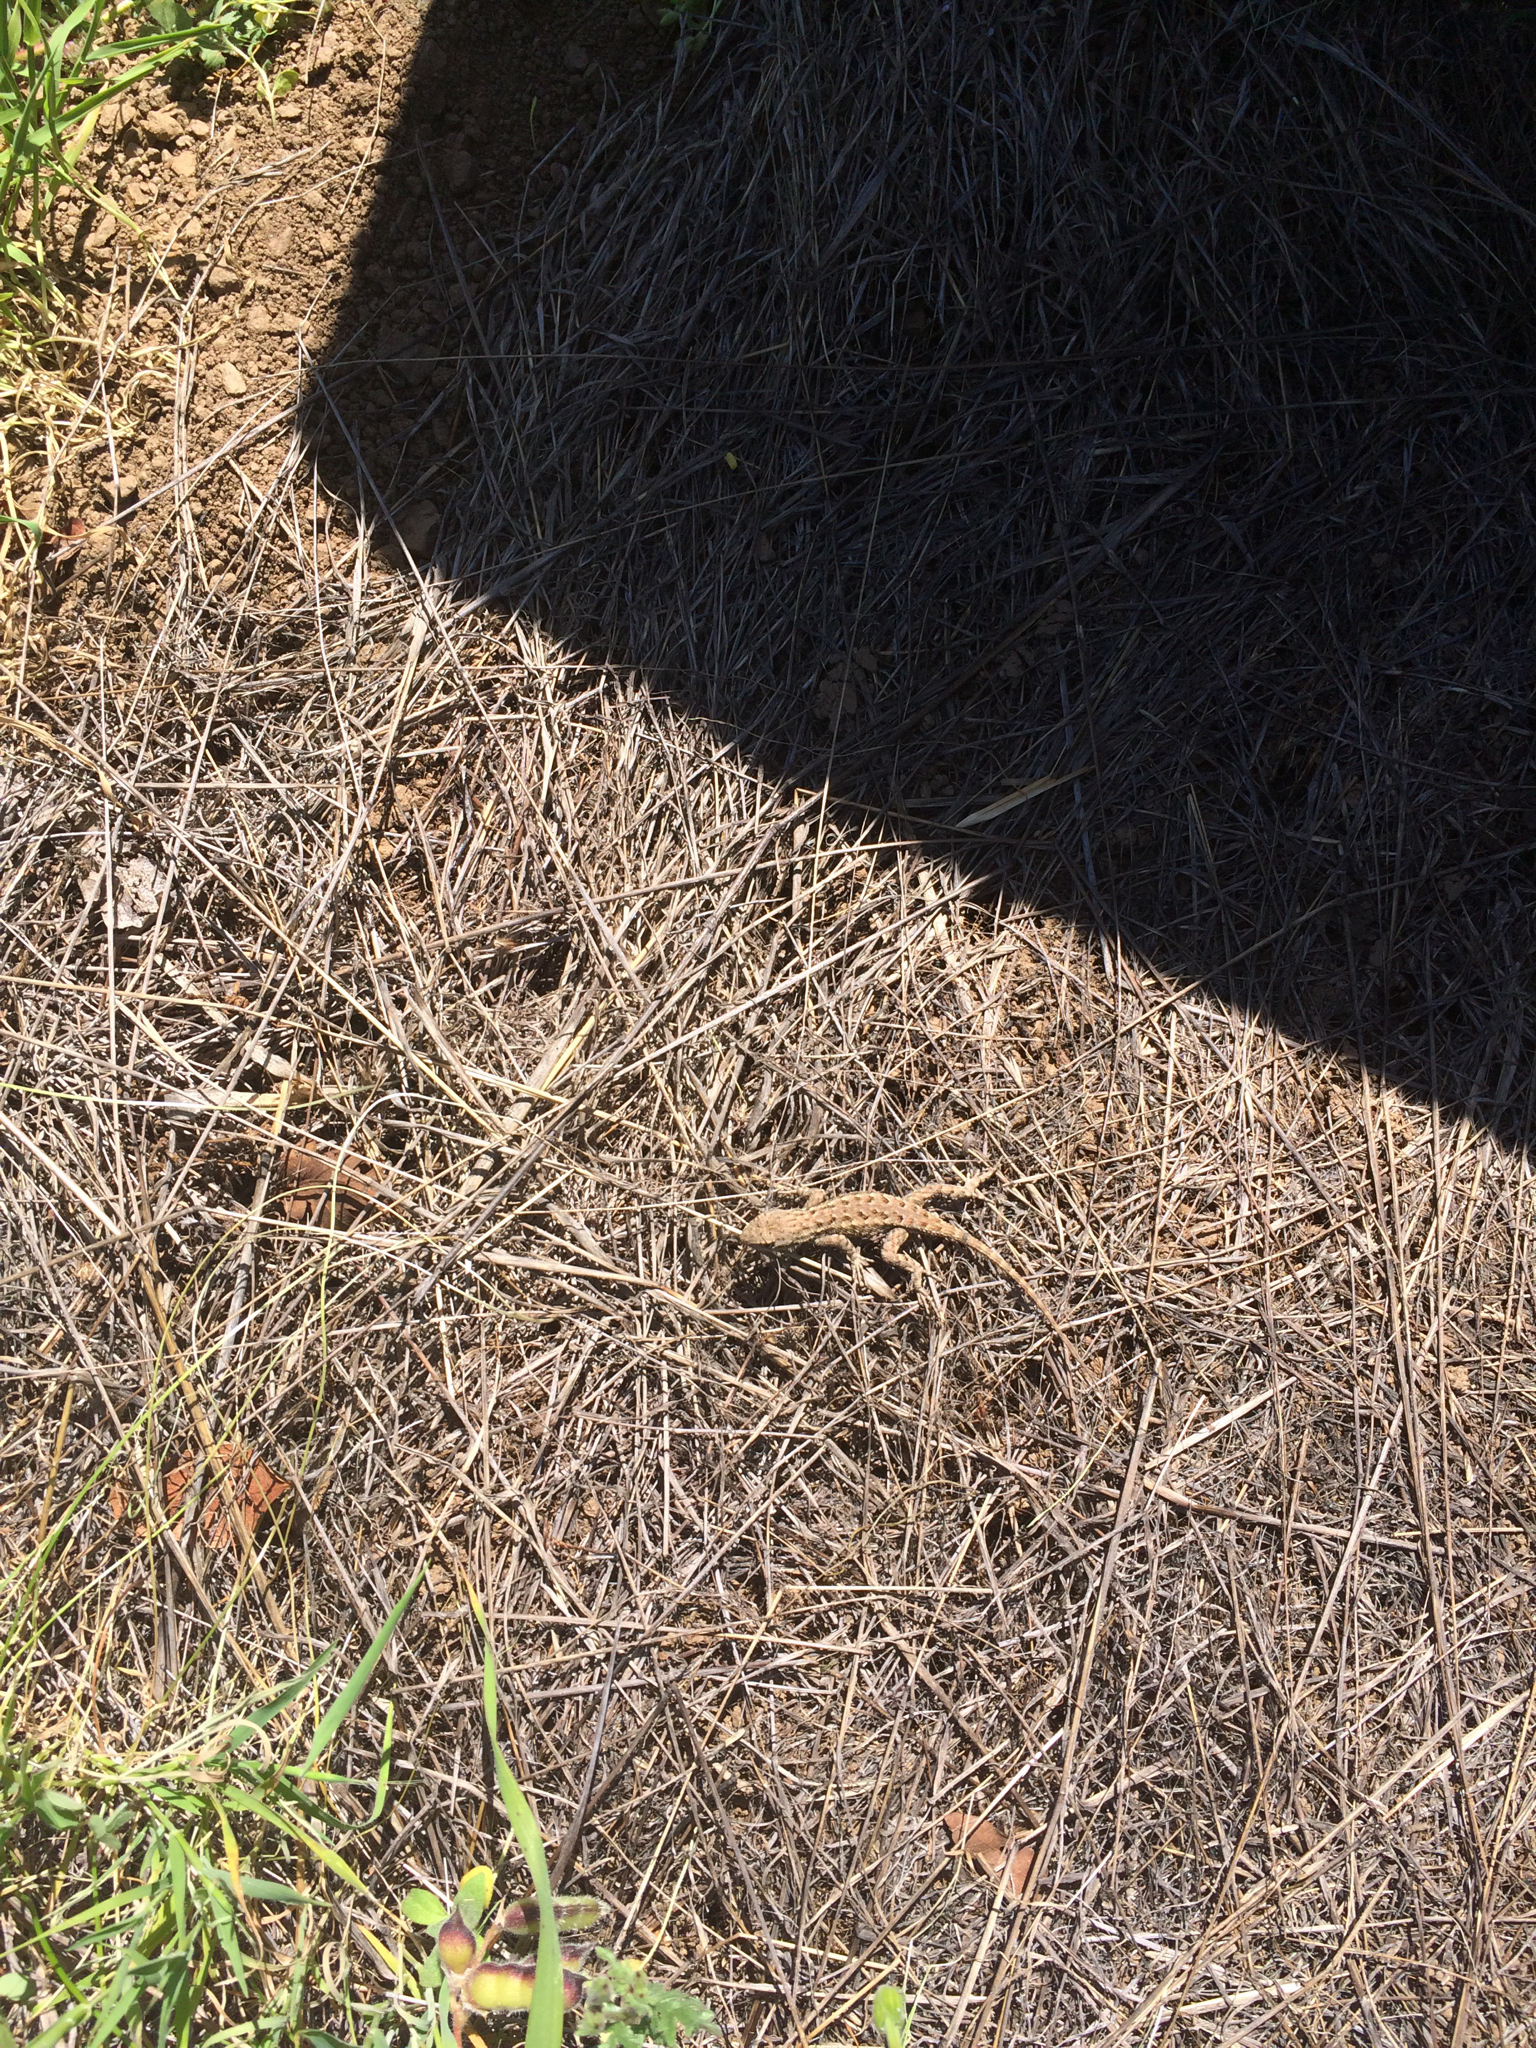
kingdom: Animalia
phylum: Chordata
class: Squamata
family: Phrynosomatidae
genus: Sceloporus
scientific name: Sceloporus occidentalis
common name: Western fence lizard
